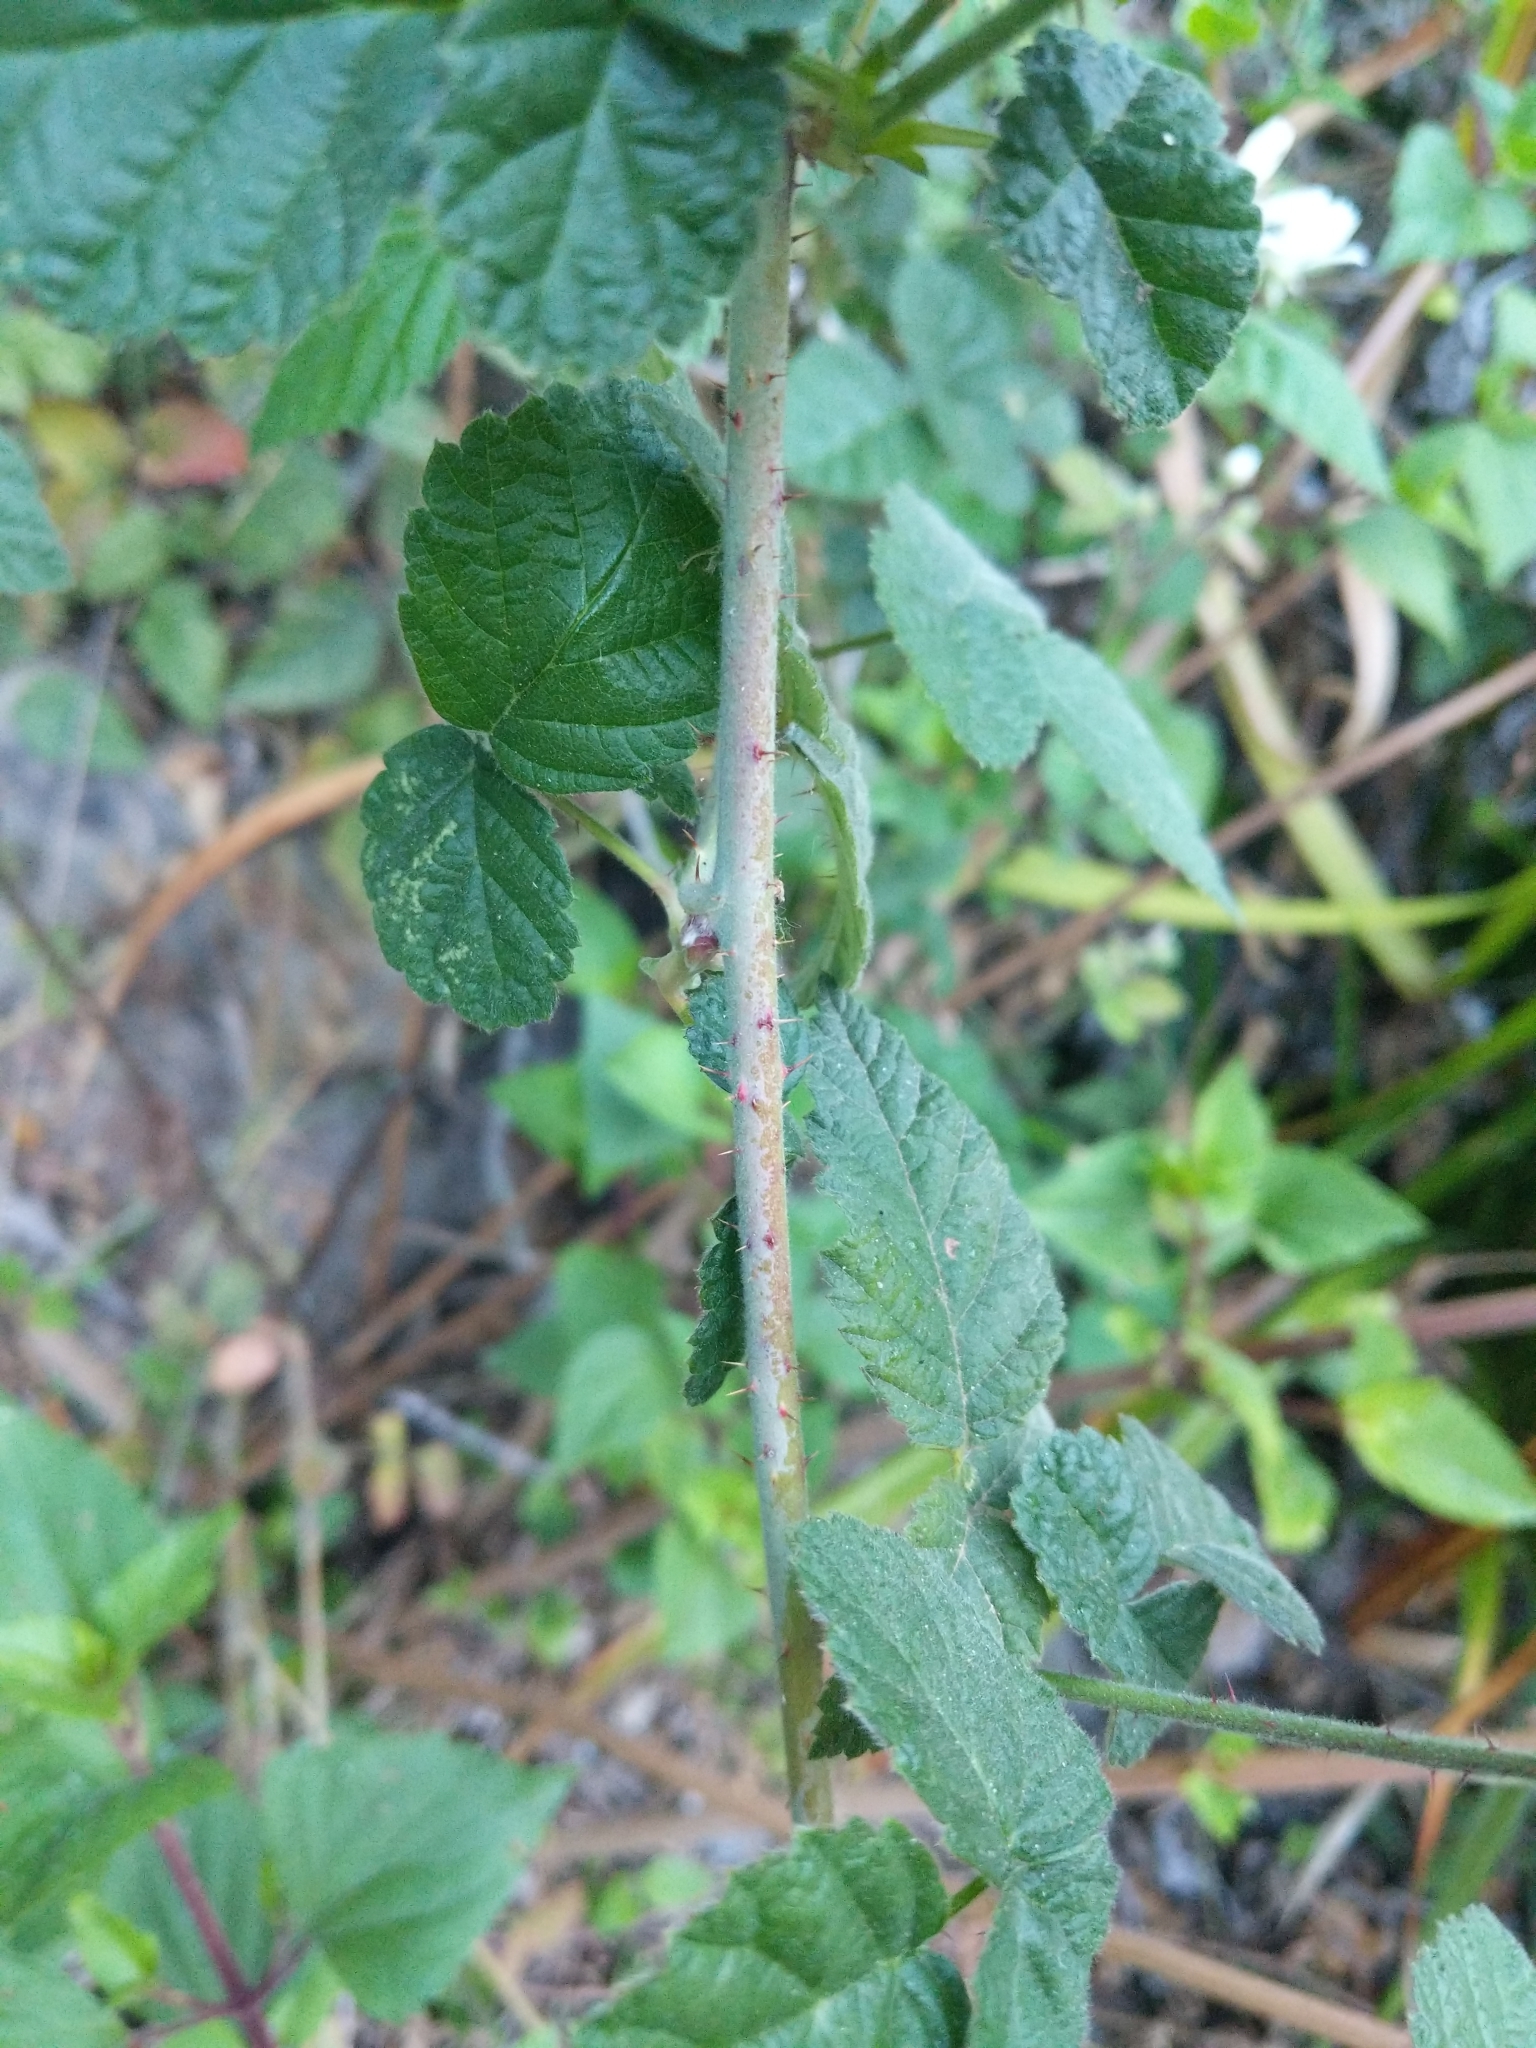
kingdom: Plantae
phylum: Tracheophyta
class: Magnoliopsida
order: Rosales
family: Rosaceae
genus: Rubus
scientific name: Rubus ursinus
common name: Pacific blackberry
